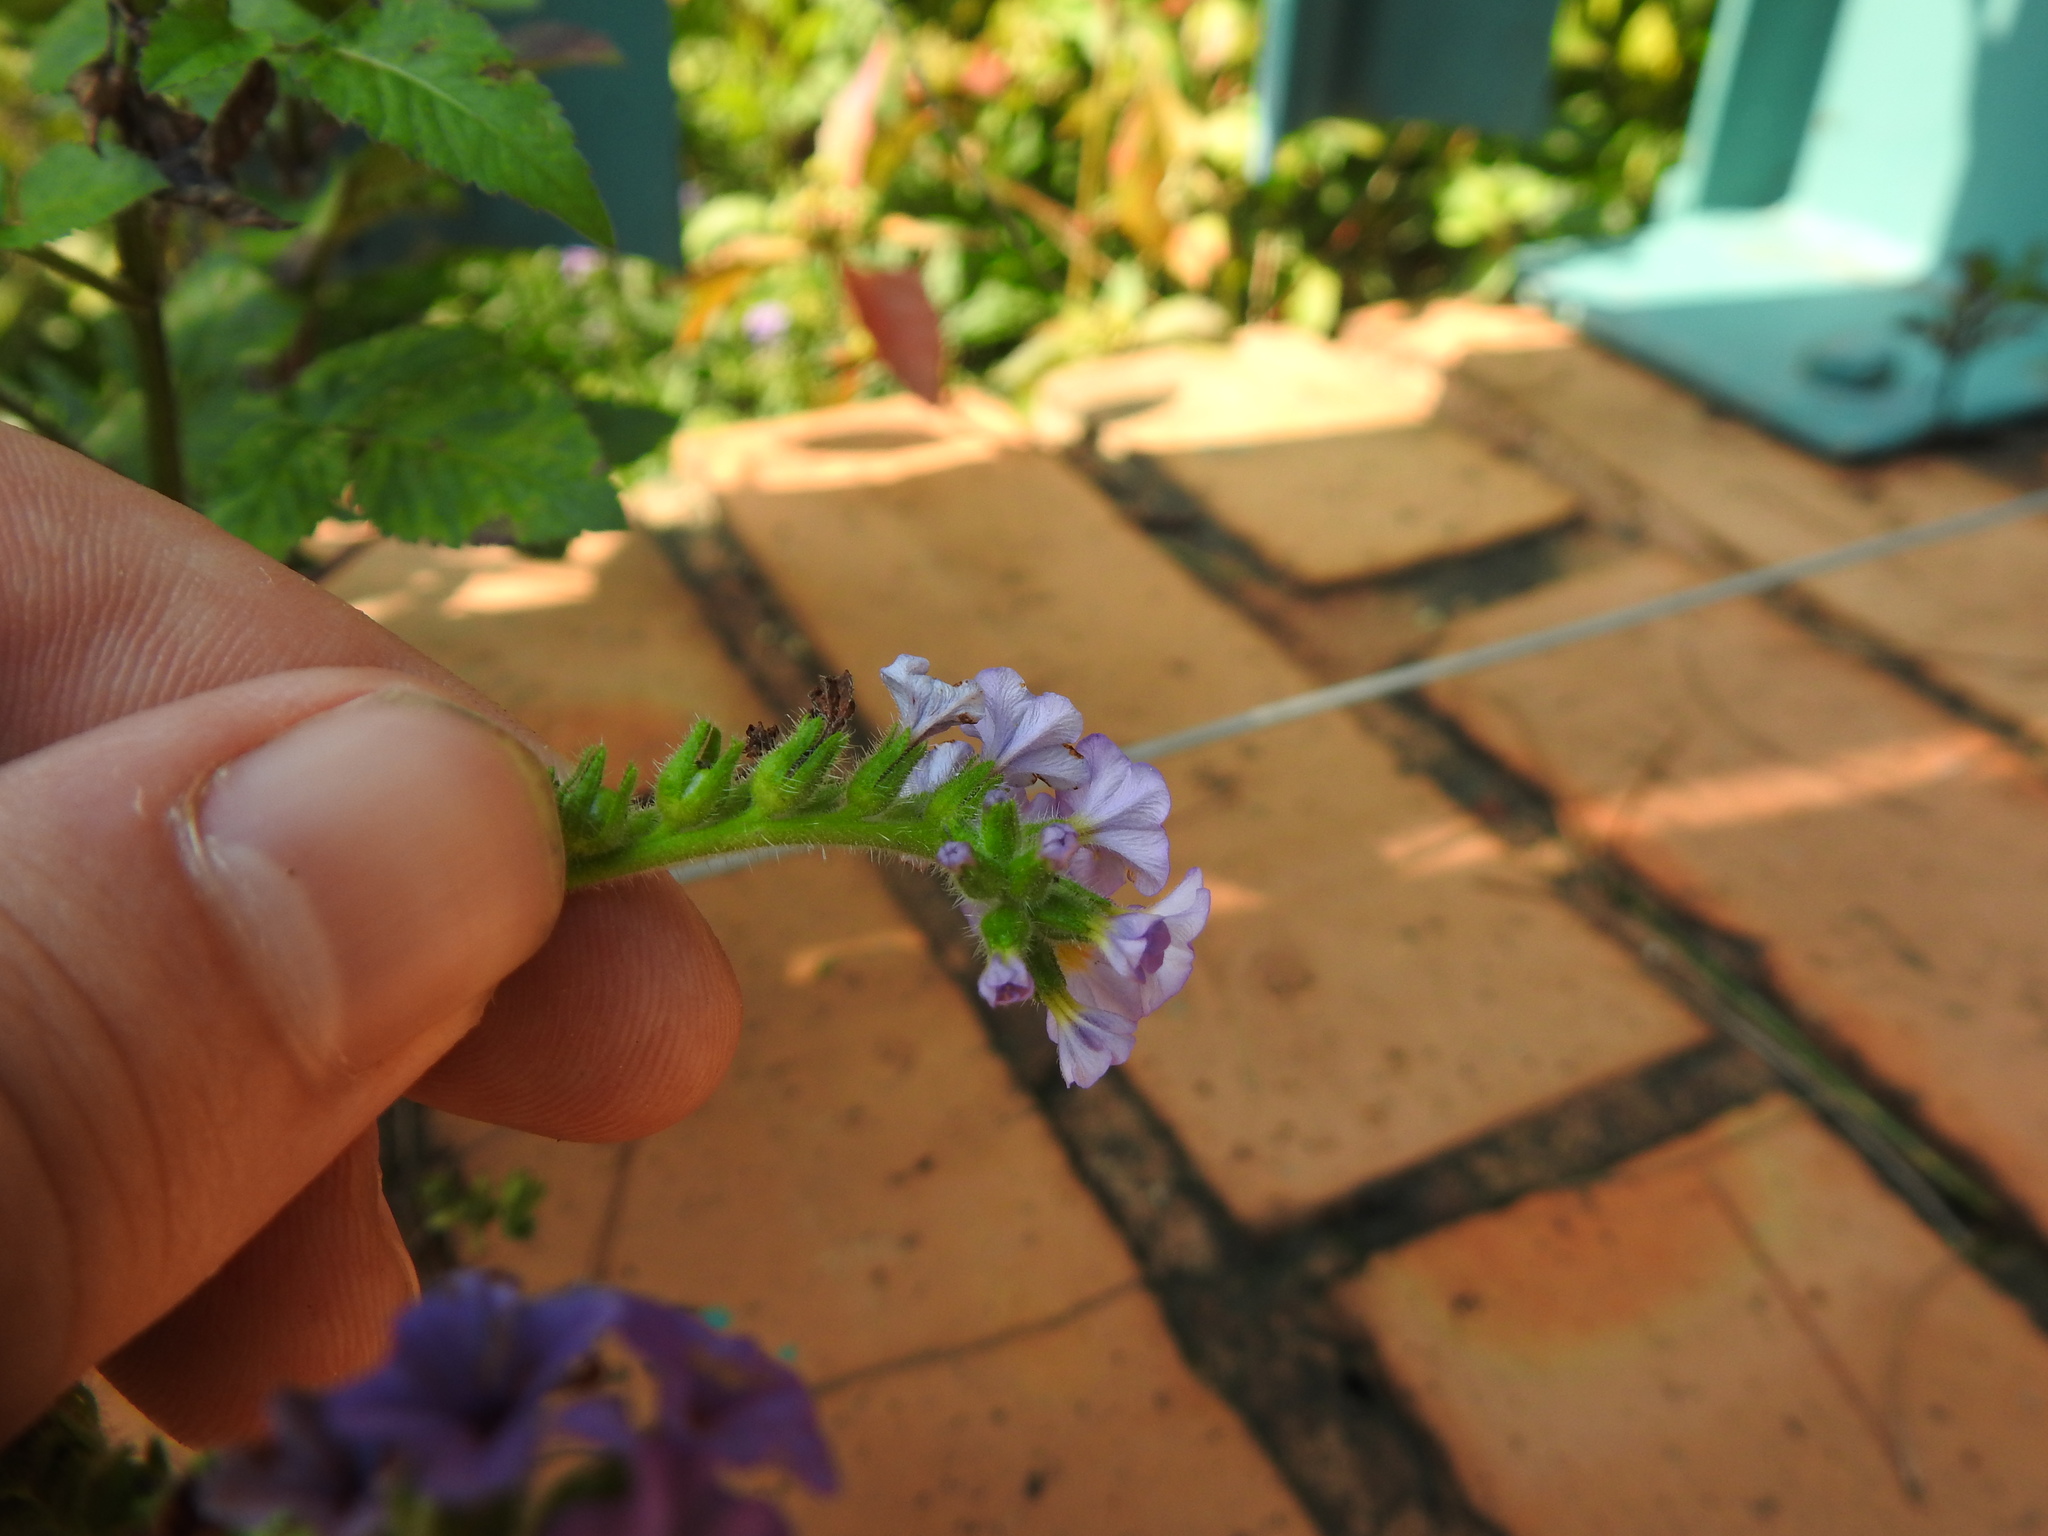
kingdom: Plantae
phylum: Tracheophyta
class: Magnoliopsida
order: Boraginales
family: Heliotropiaceae
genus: Heliotropium
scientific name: Heliotropium amplexicaule
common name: Clasping heliotrope
